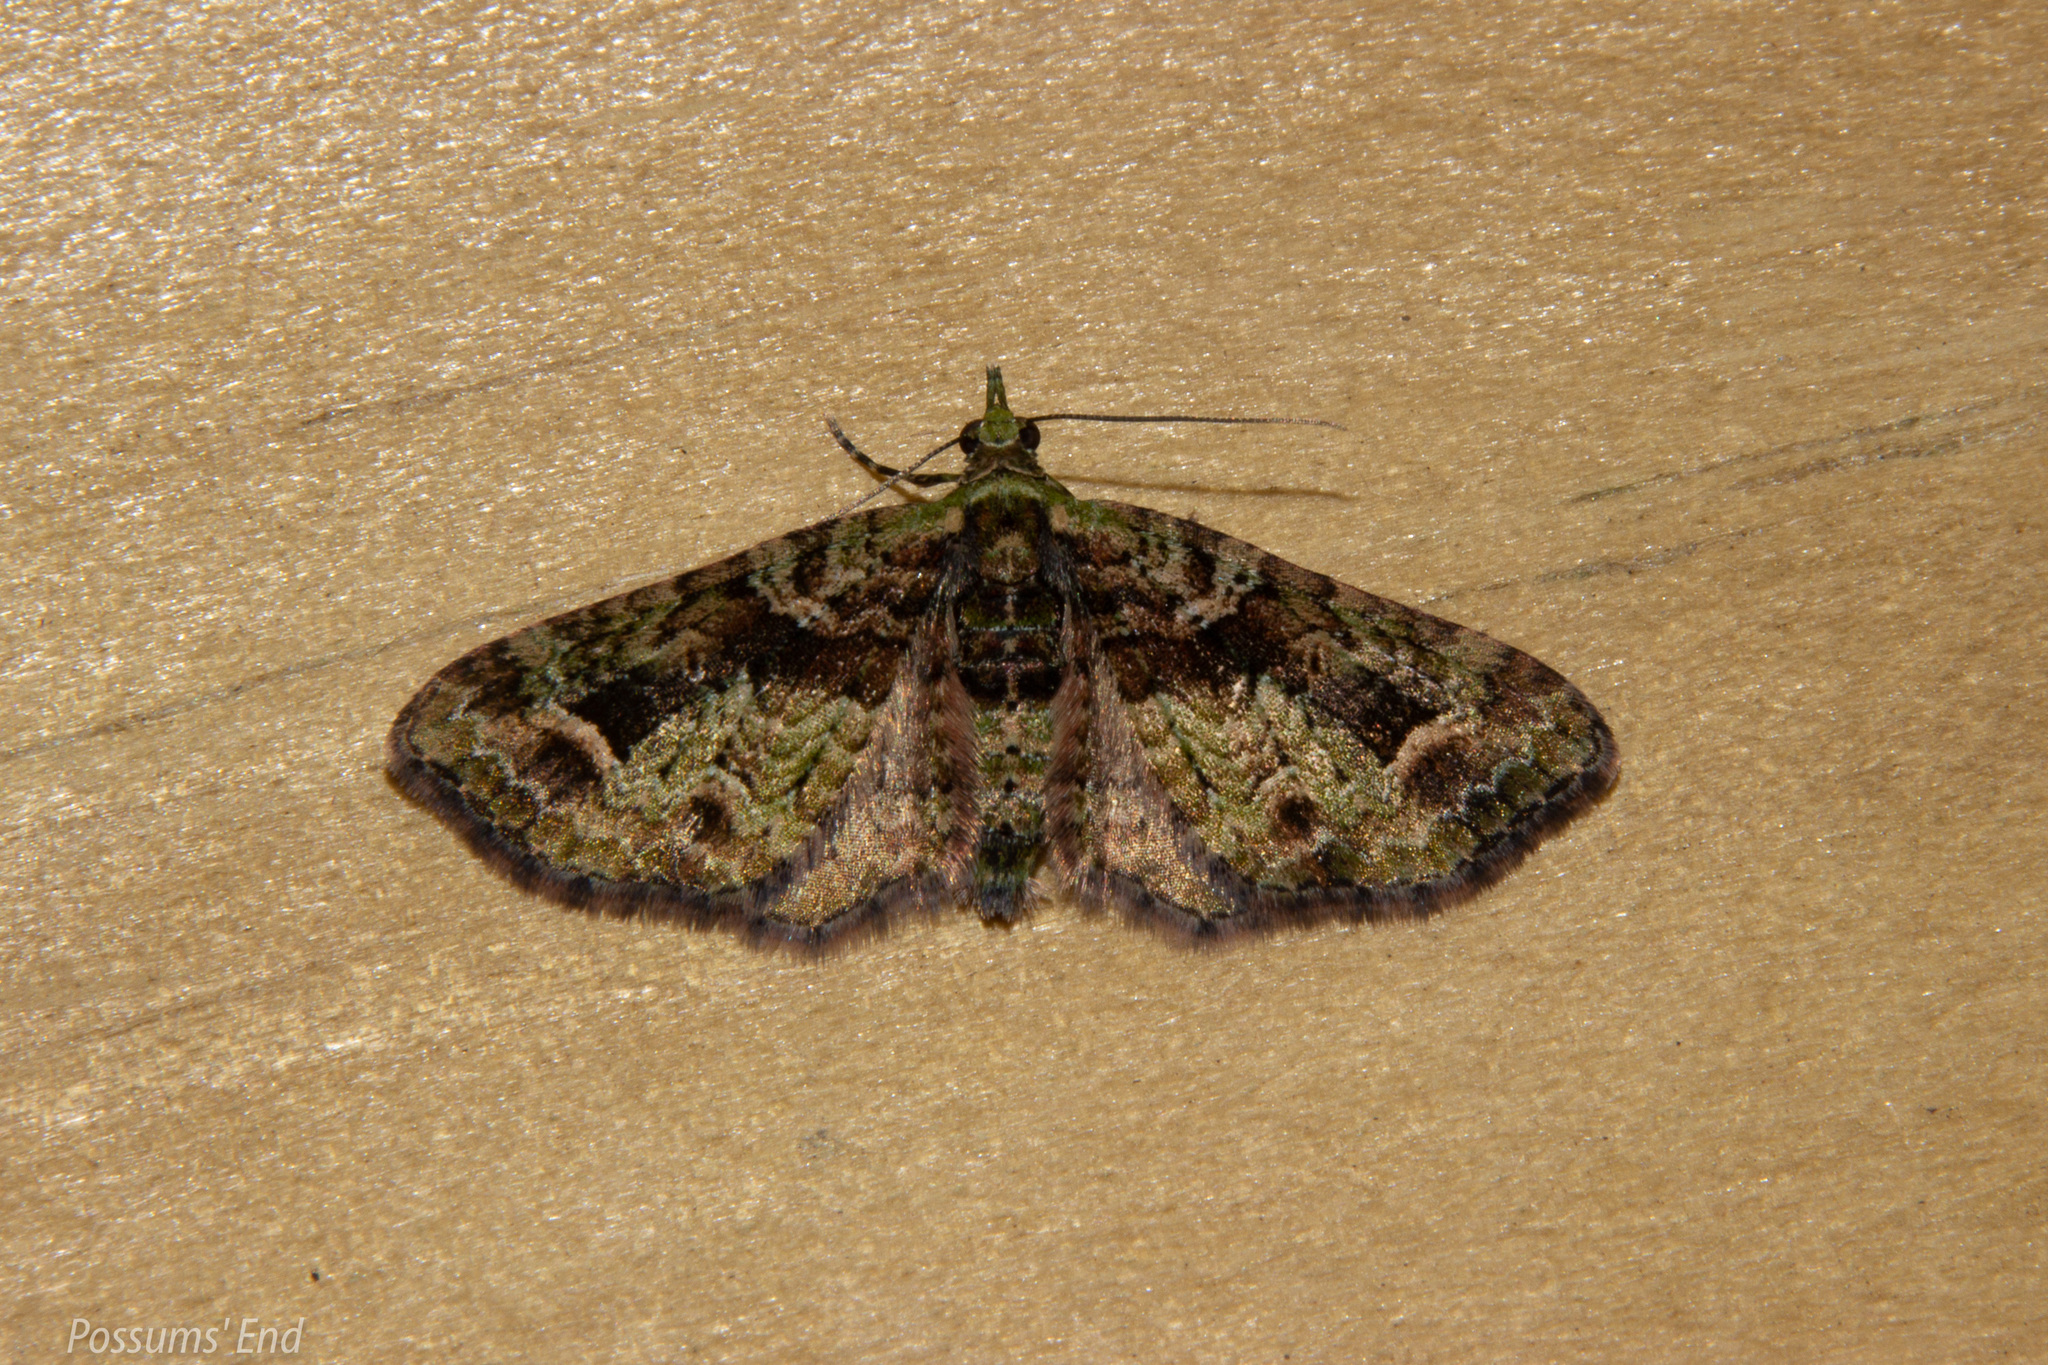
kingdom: Animalia
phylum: Arthropoda
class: Insecta
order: Lepidoptera
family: Geometridae
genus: Idaea
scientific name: Idaea mutanda
